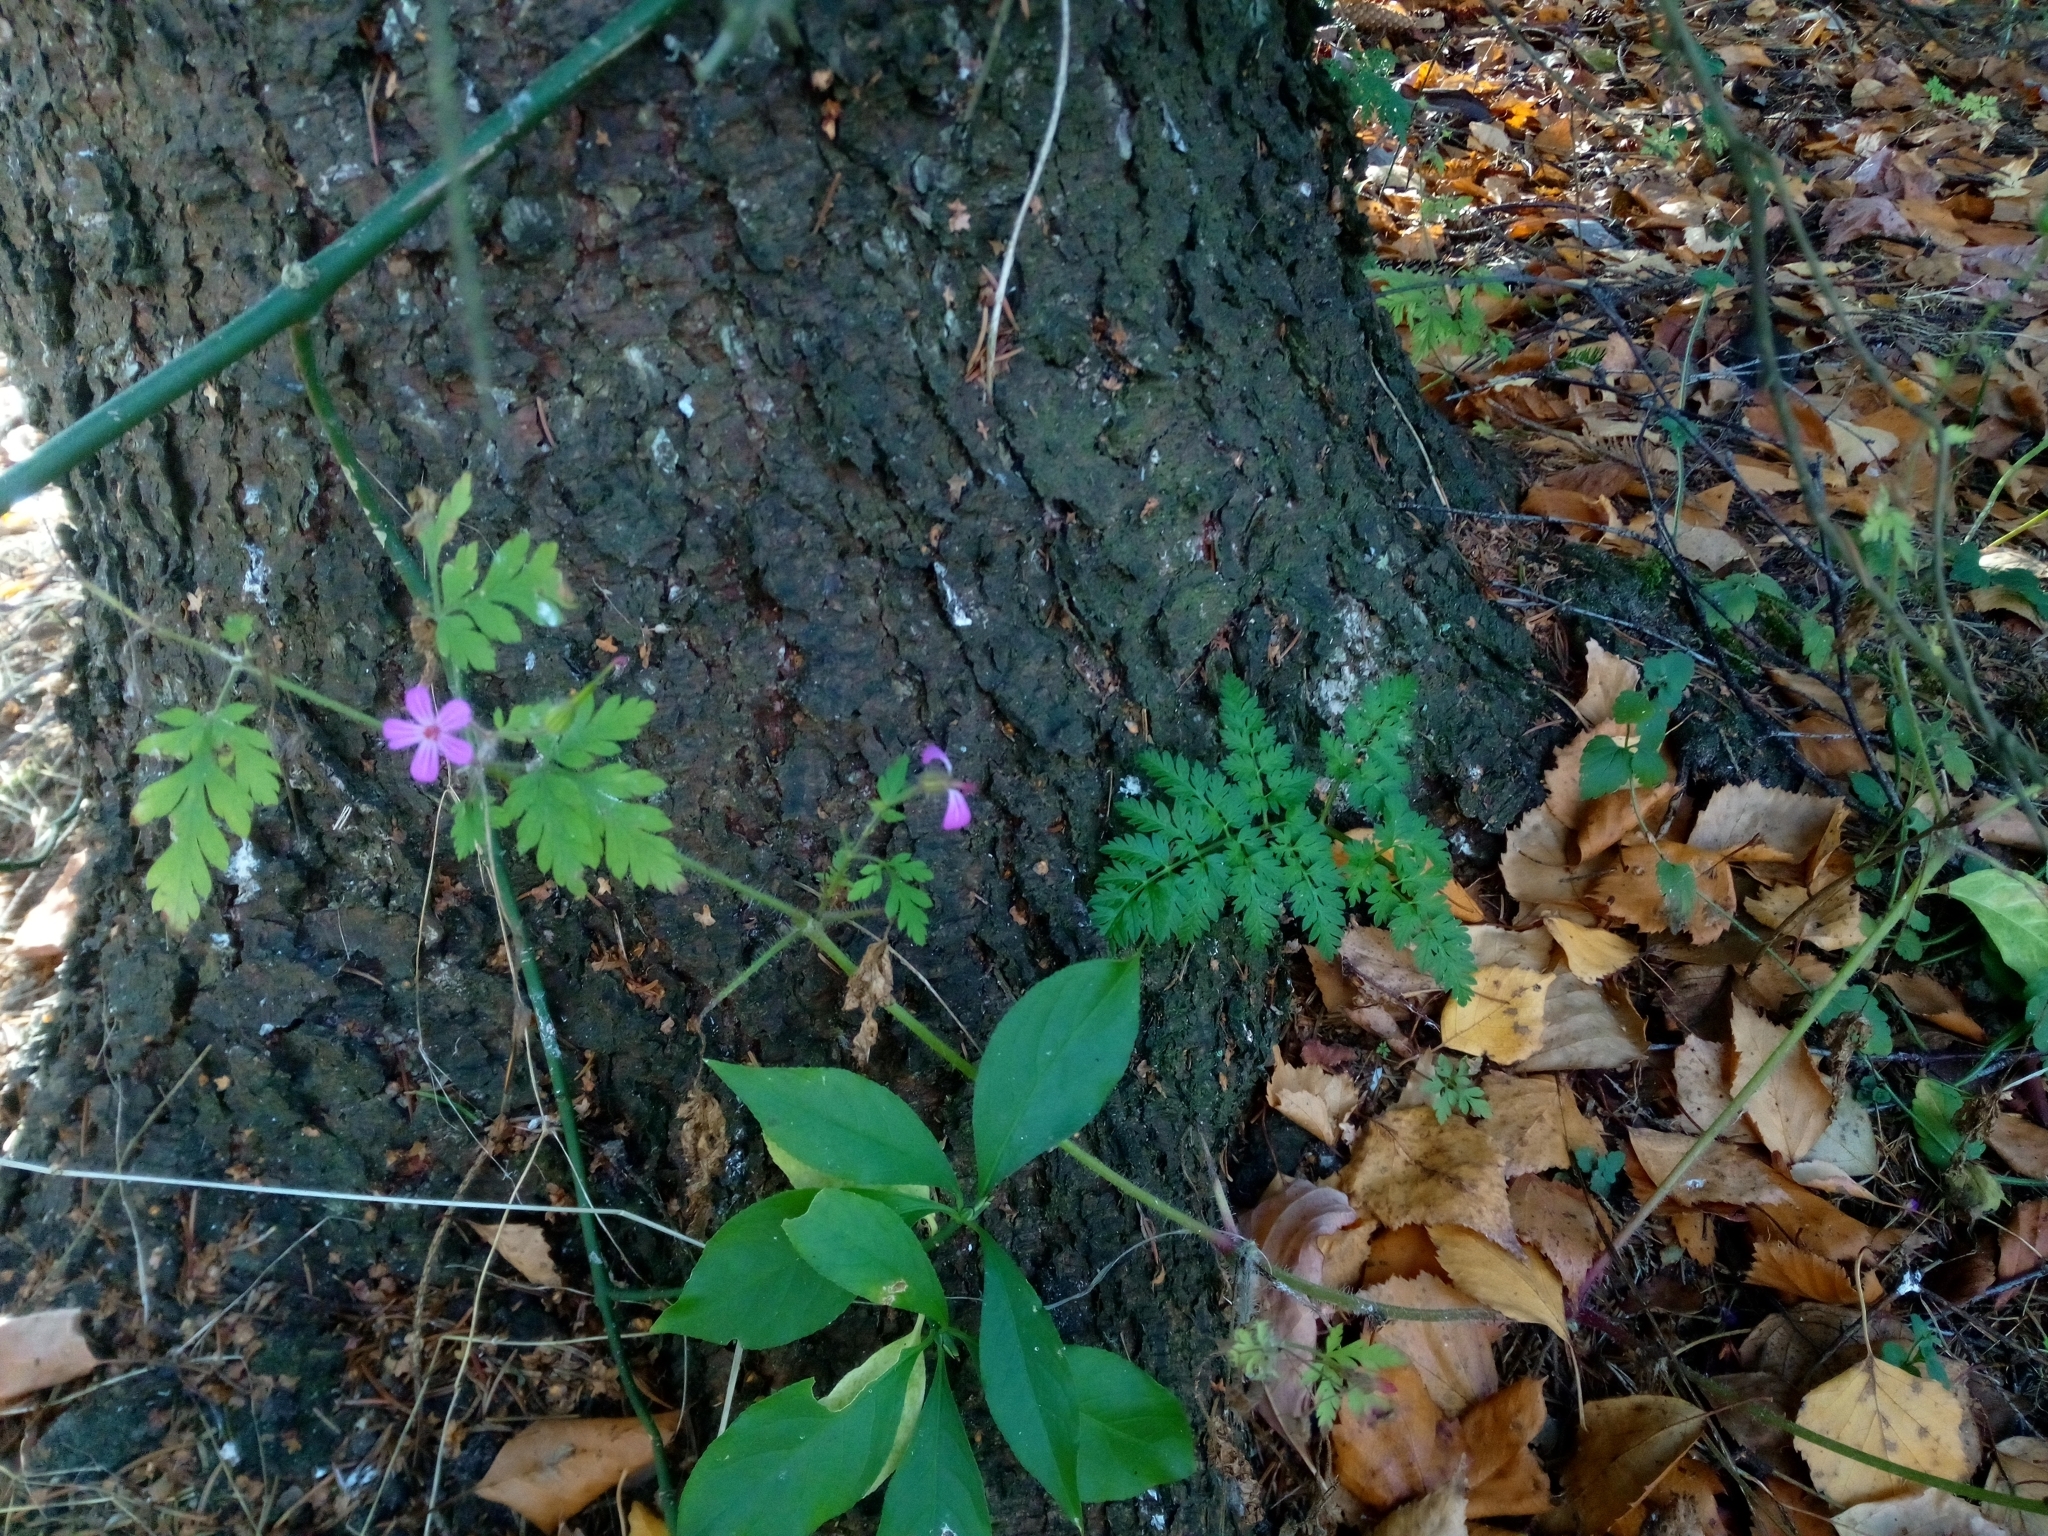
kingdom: Plantae
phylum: Tracheophyta
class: Magnoliopsida
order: Geraniales
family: Geraniaceae
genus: Geranium
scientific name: Geranium robertianum
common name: Herb-robert
